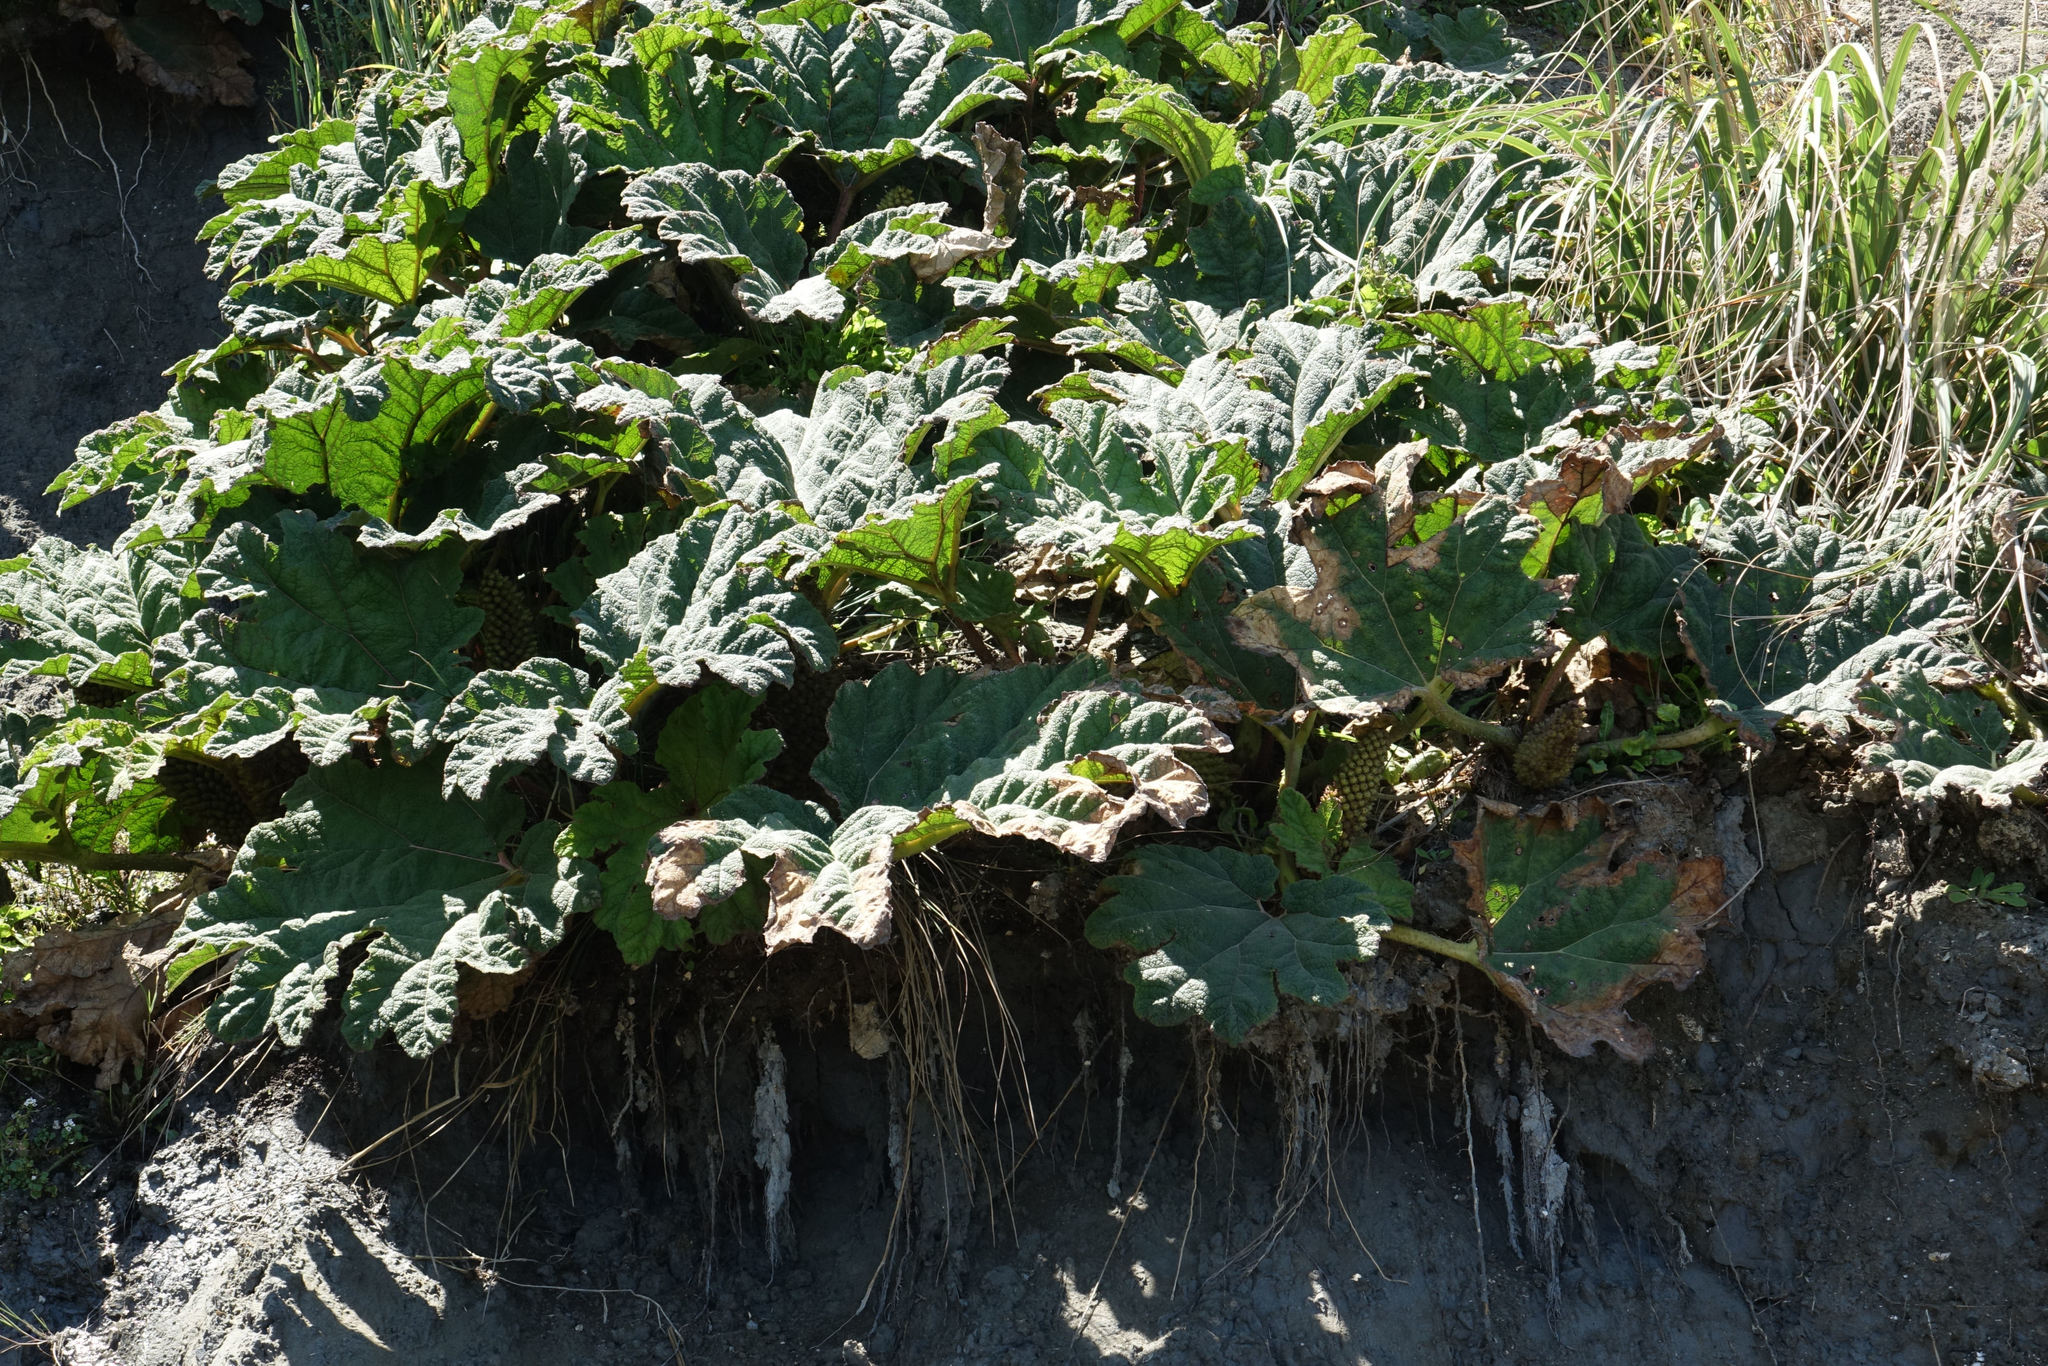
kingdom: Plantae
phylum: Tracheophyta
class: Magnoliopsida
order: Gunnerales
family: Gunneraceae
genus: Gunnera
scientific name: Gunnera tinctoria
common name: Giant-rhubarb
